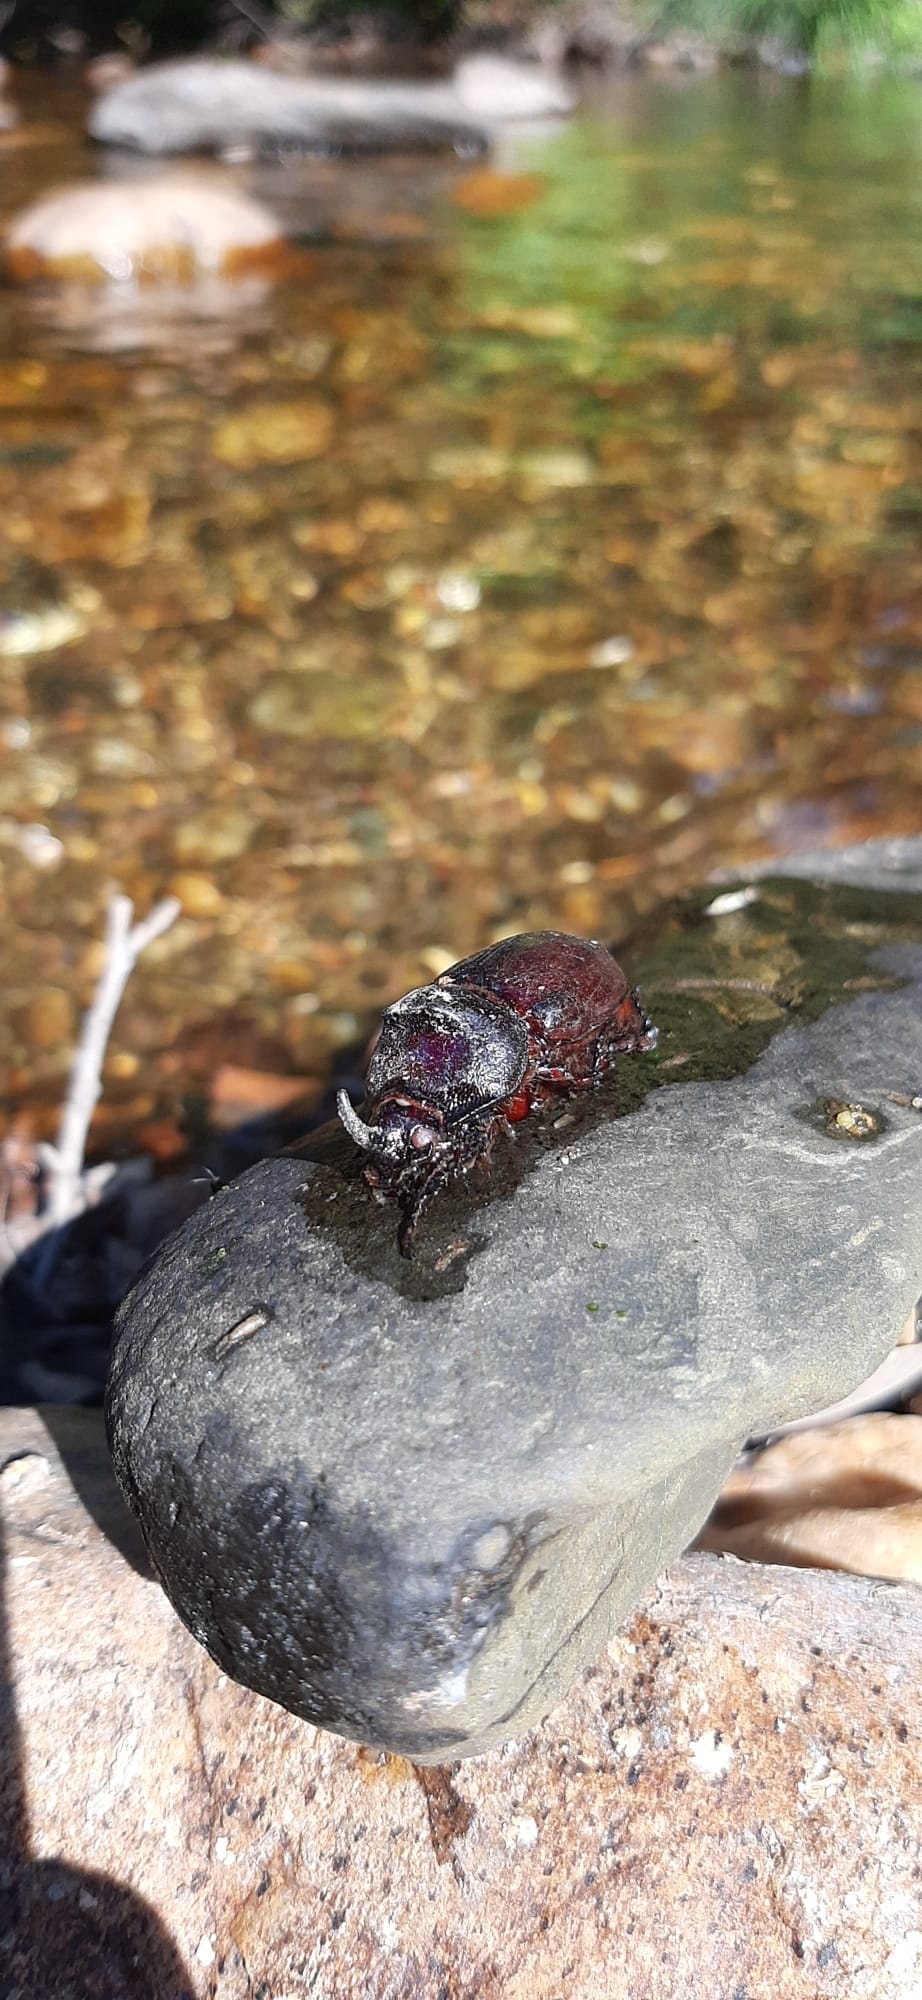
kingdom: Animalia
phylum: Arthropoda
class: Insecta
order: Coleoptera
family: Scarabaeidae
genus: Oryctes
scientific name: Oryctes nasicornis
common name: European rhinoceros beetle
